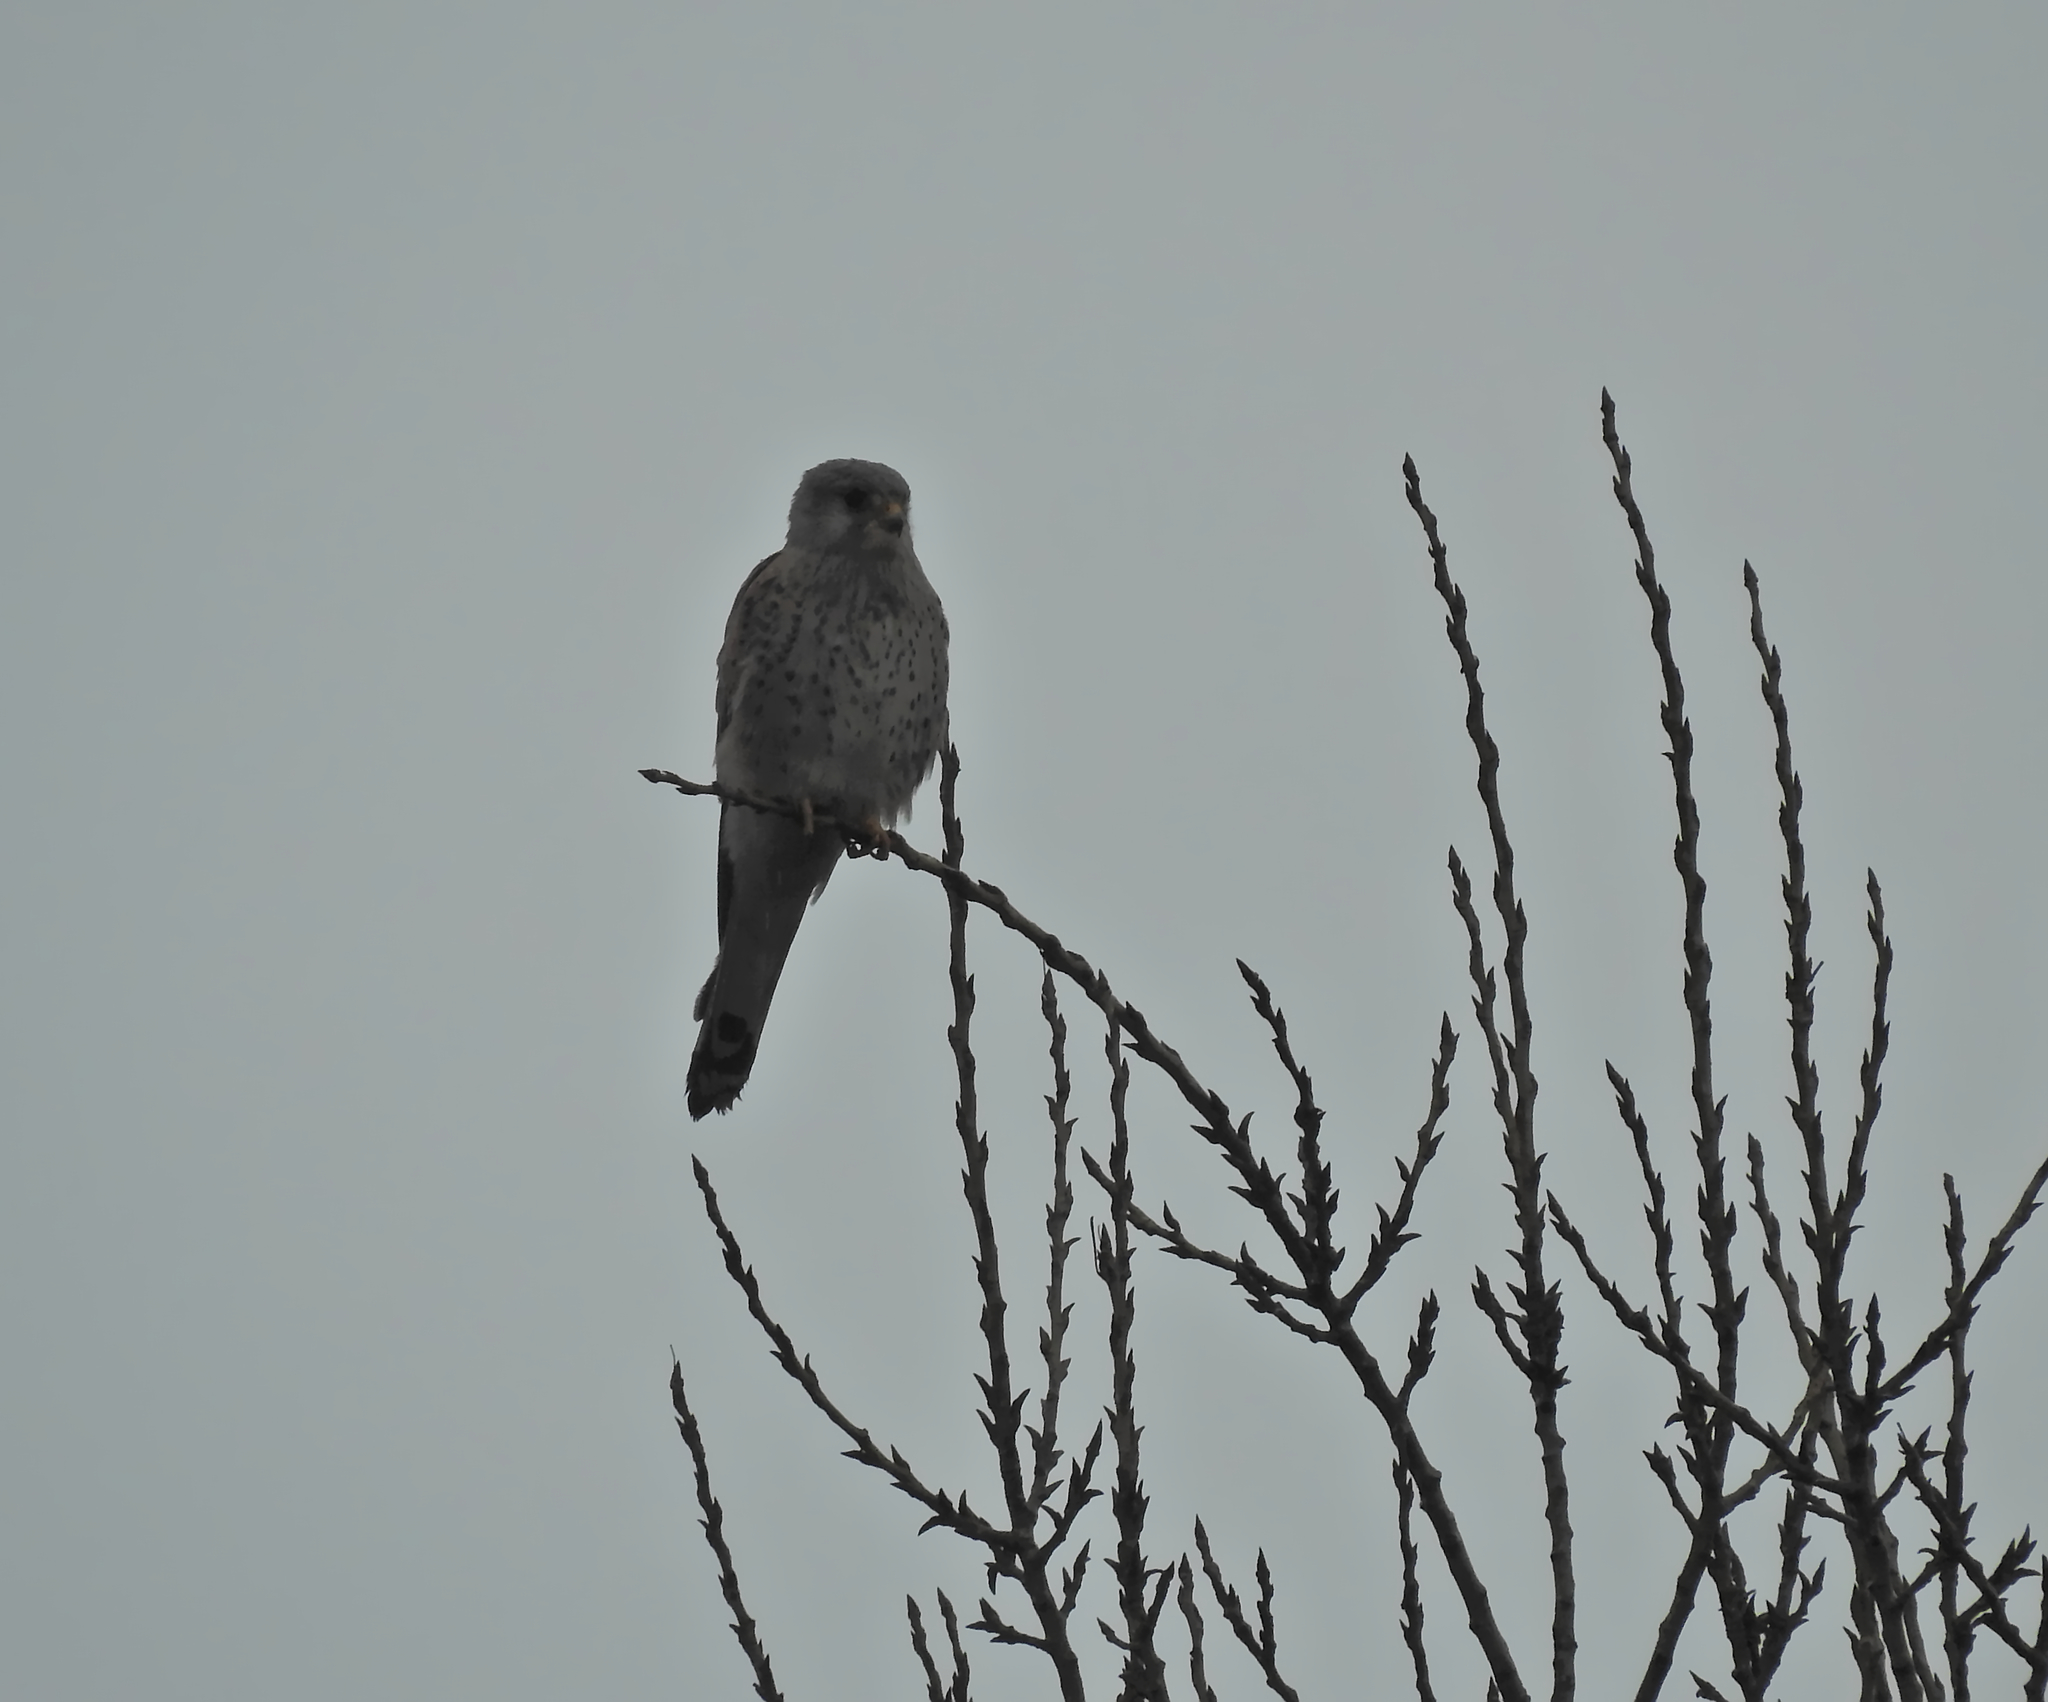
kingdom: Animalia
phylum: Chordata
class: Aves
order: Falconiformes
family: Falconidae
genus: Falco
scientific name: Falco tinnunculus
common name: Common kestrel
